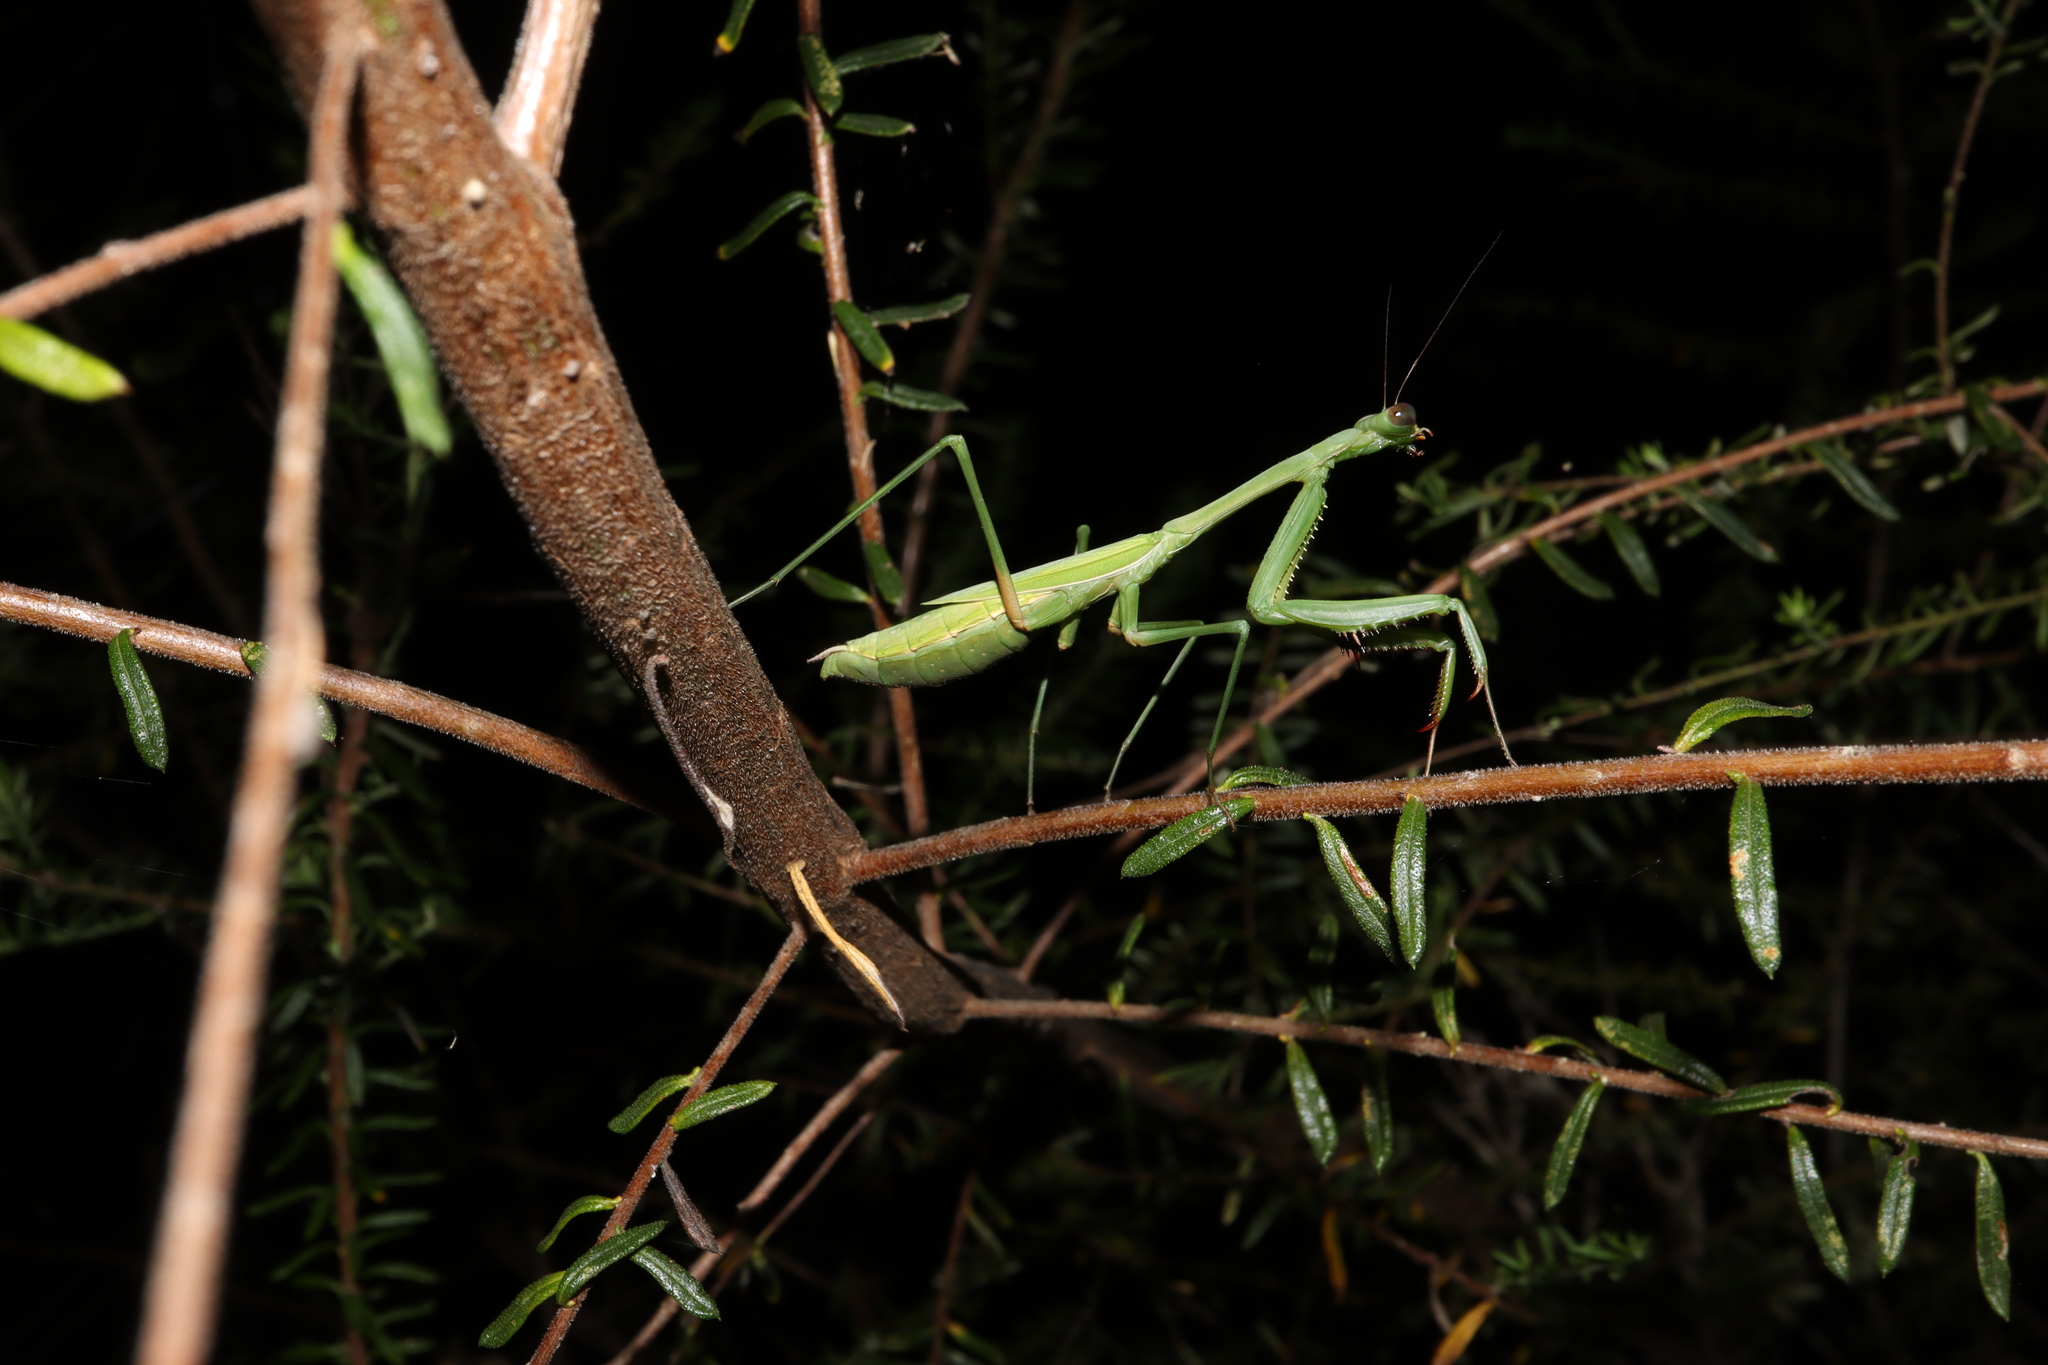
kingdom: Animalia
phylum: Arthropoda
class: Insecta
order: Mantodea
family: Mantidae
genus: Pseudomantis
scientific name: Pseudomantis albofimbriata
